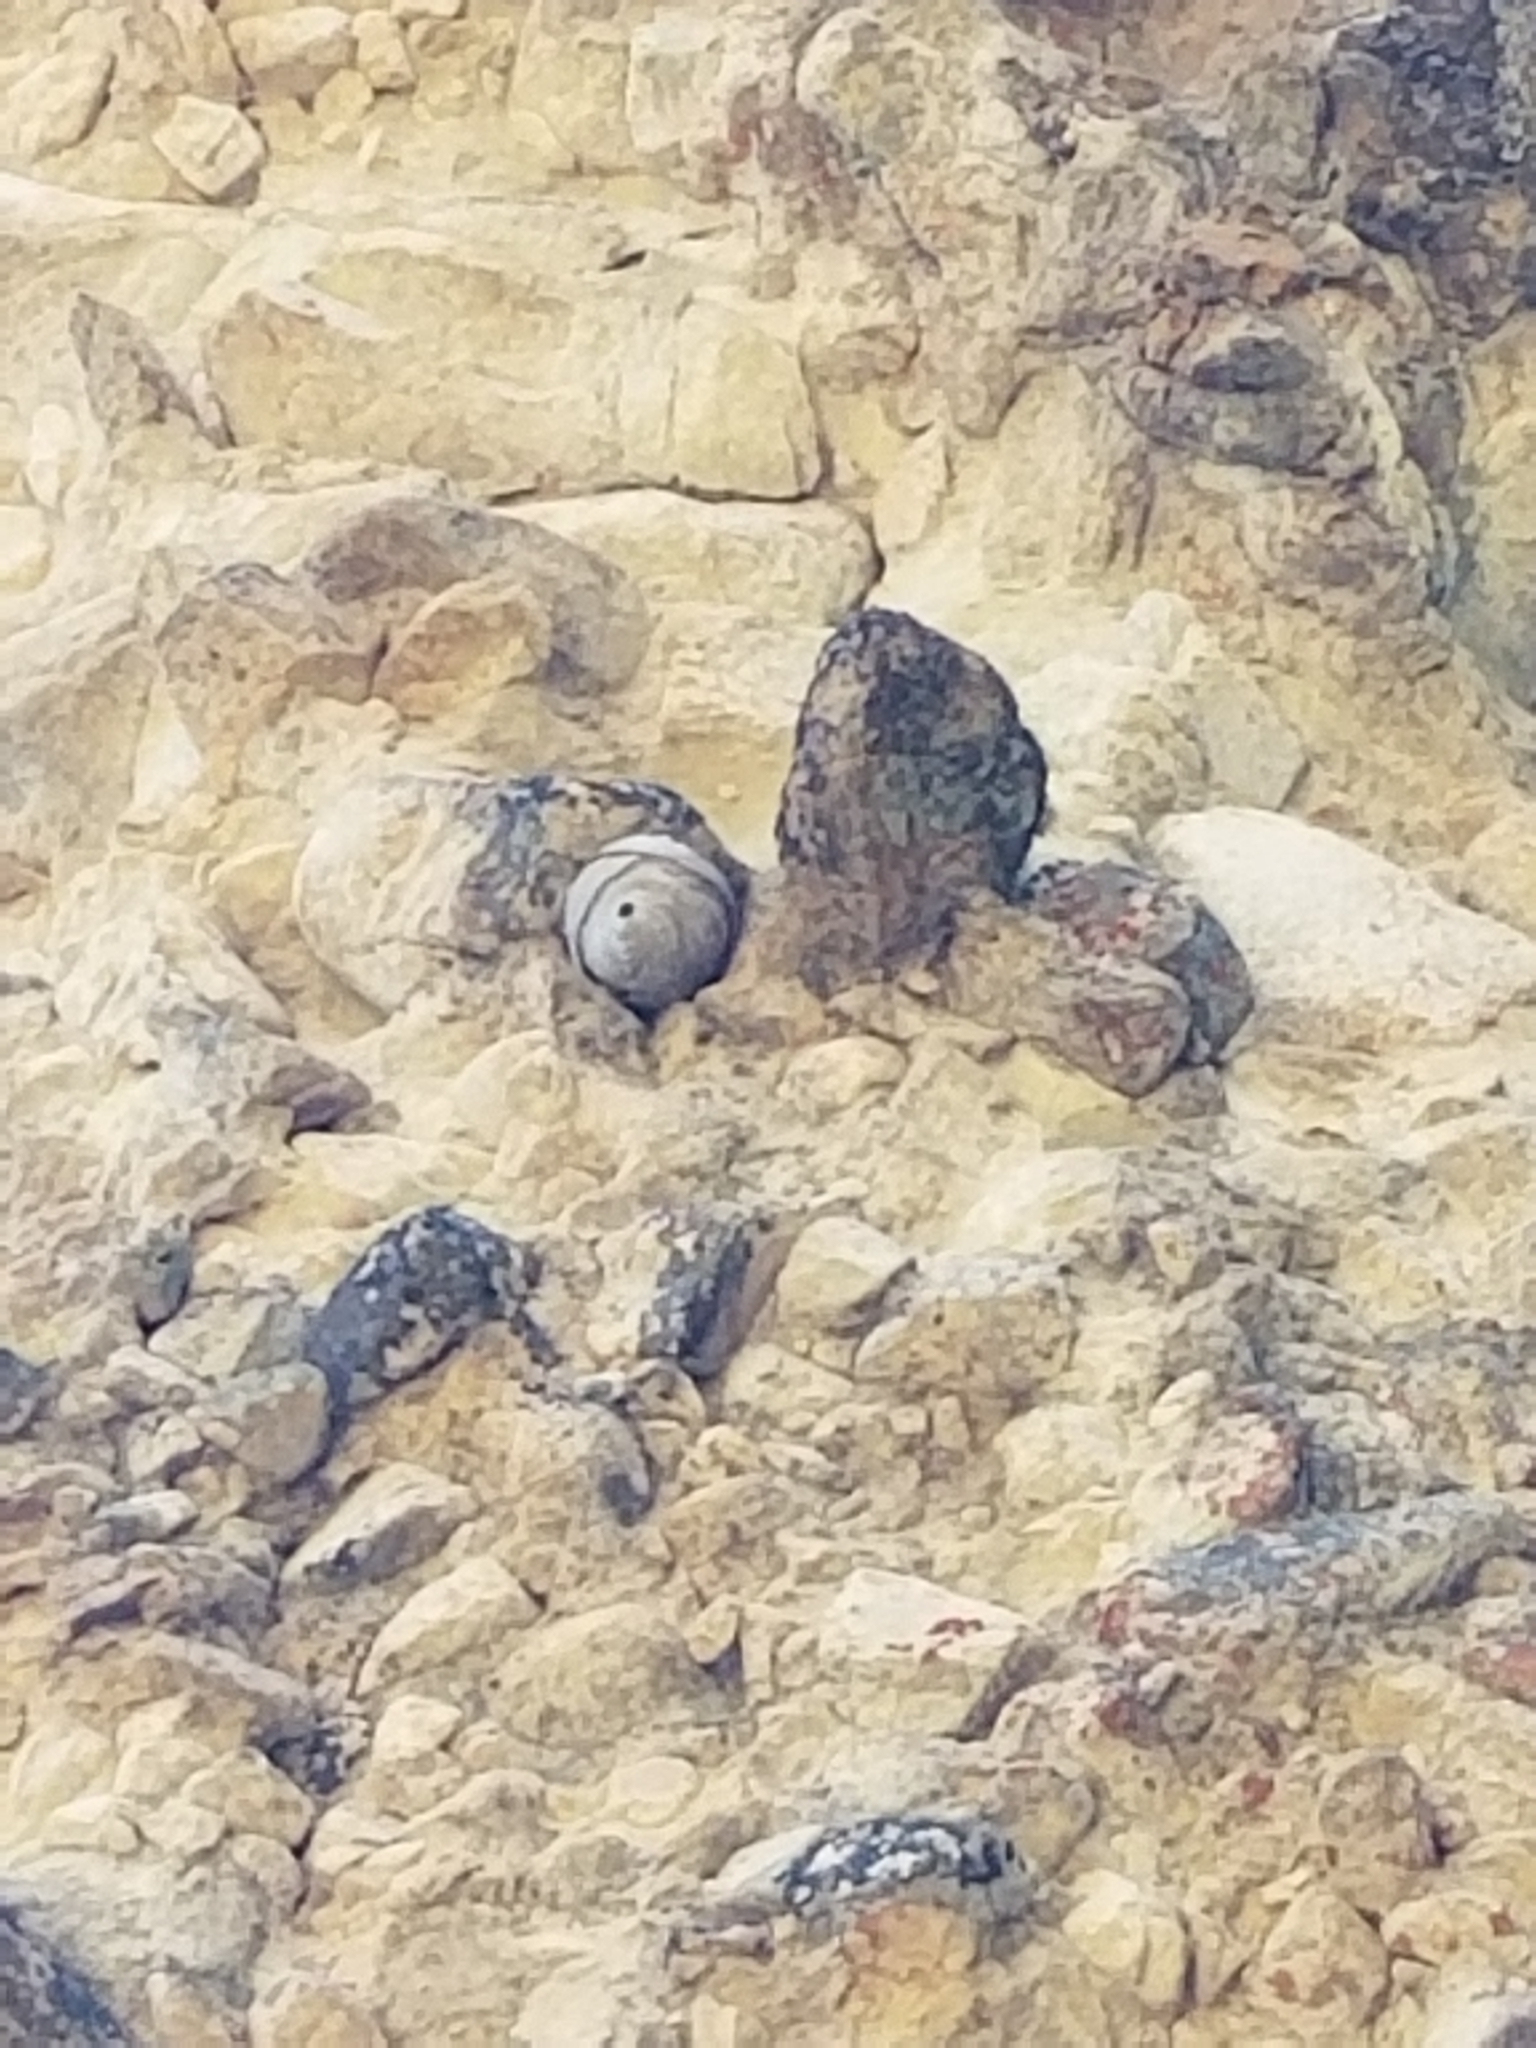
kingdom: Animalia
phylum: Arthropoda
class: Insecta
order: Hymenoptera
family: Vespidae
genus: Dolichovespula
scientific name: Dolichovespula
